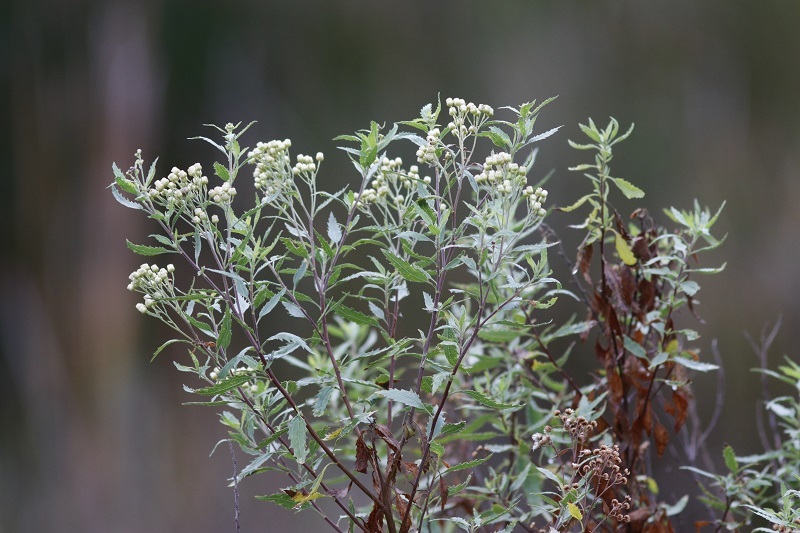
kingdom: Plantae
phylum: Tracheophyta
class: Magnoliopsida
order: Asterales
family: Asteraceae
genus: Nidorella
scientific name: Nidorella ivifolia
